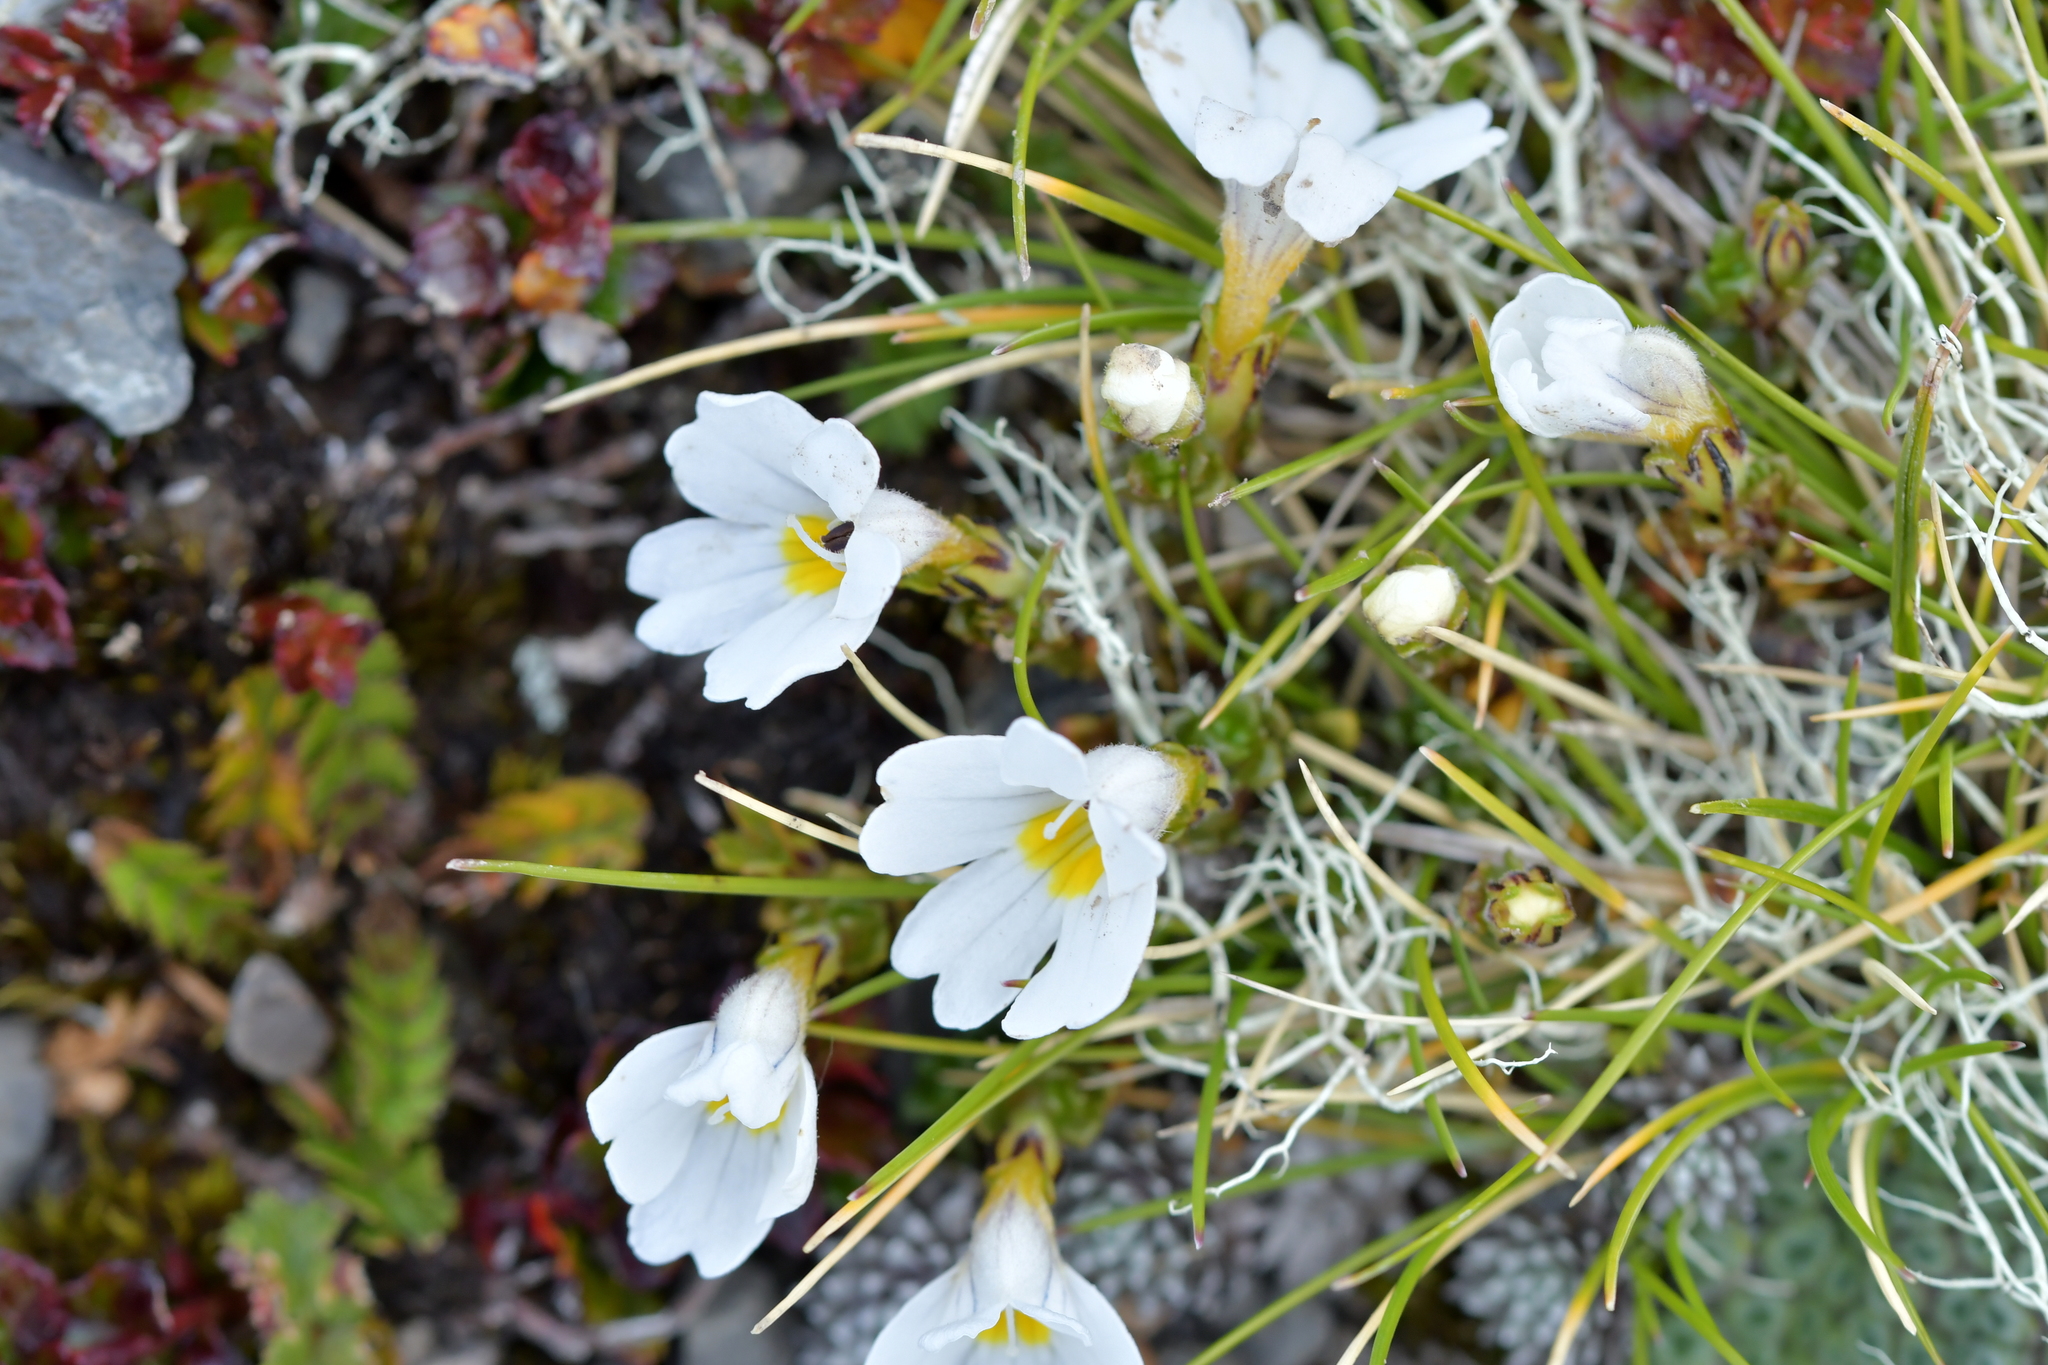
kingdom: Plantae
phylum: Tracheophyta
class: Magnoliopsida
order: Lamiales
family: Orobanchaceae
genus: Euphrasia
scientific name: Euphrasia revoluta
